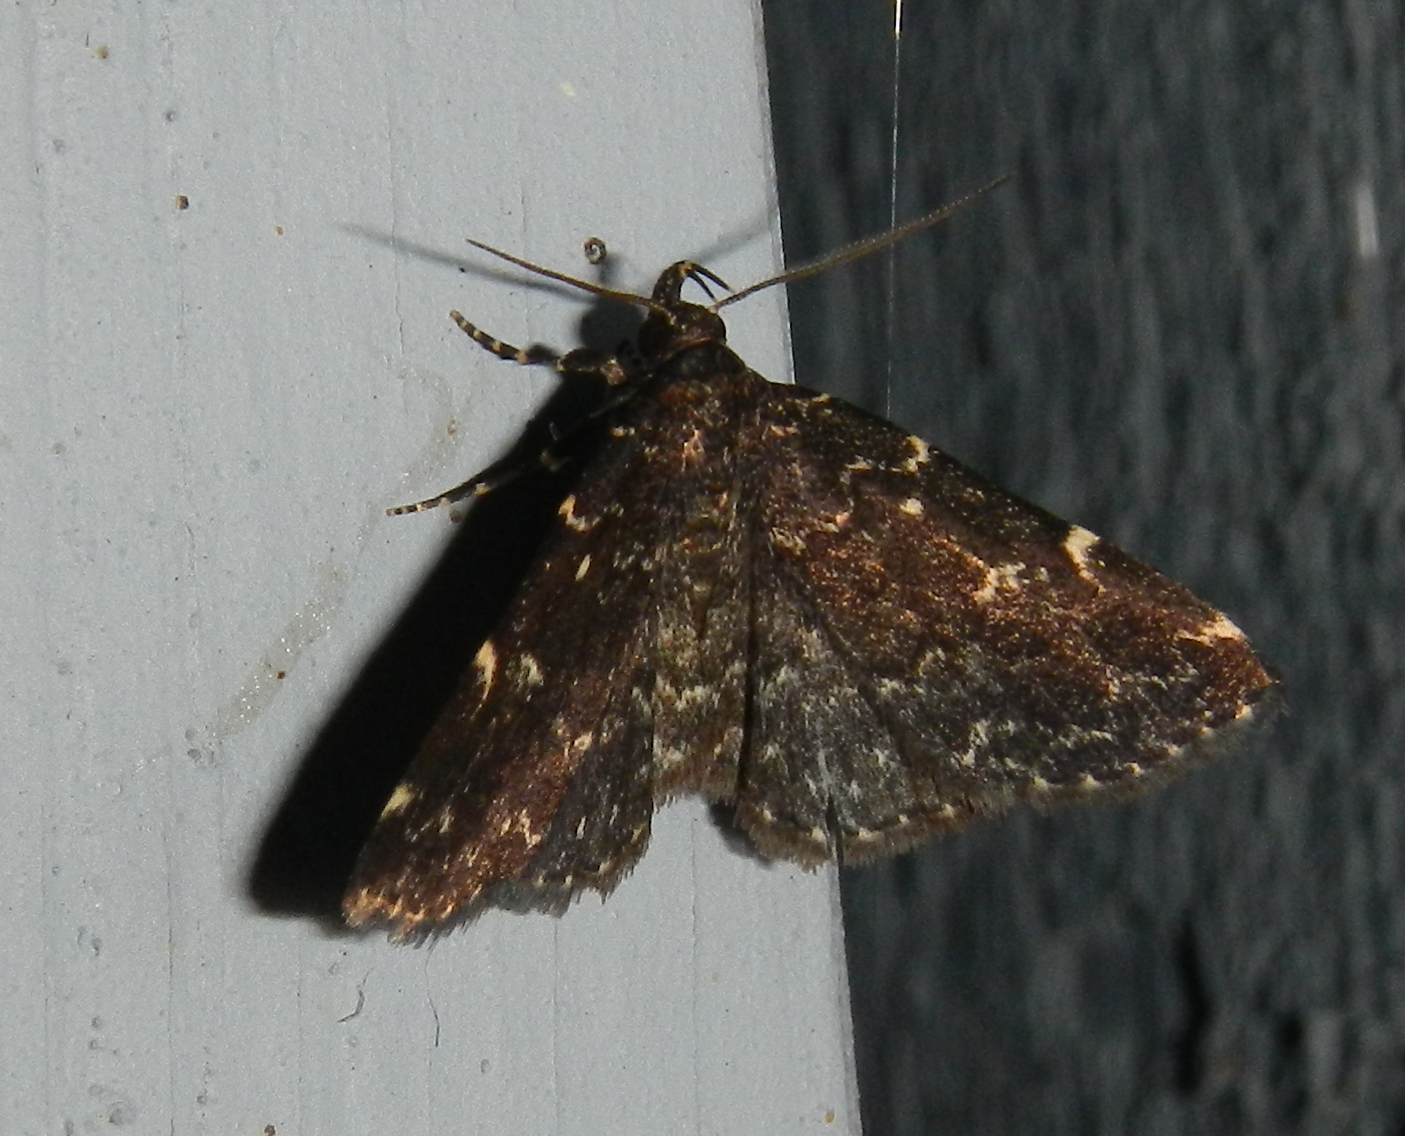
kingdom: Animalia
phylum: Arthropoda
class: Insecta
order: Lepidoptera
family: Erebidae
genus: Idia
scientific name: Idia scobialis
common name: Smoky idia moth
